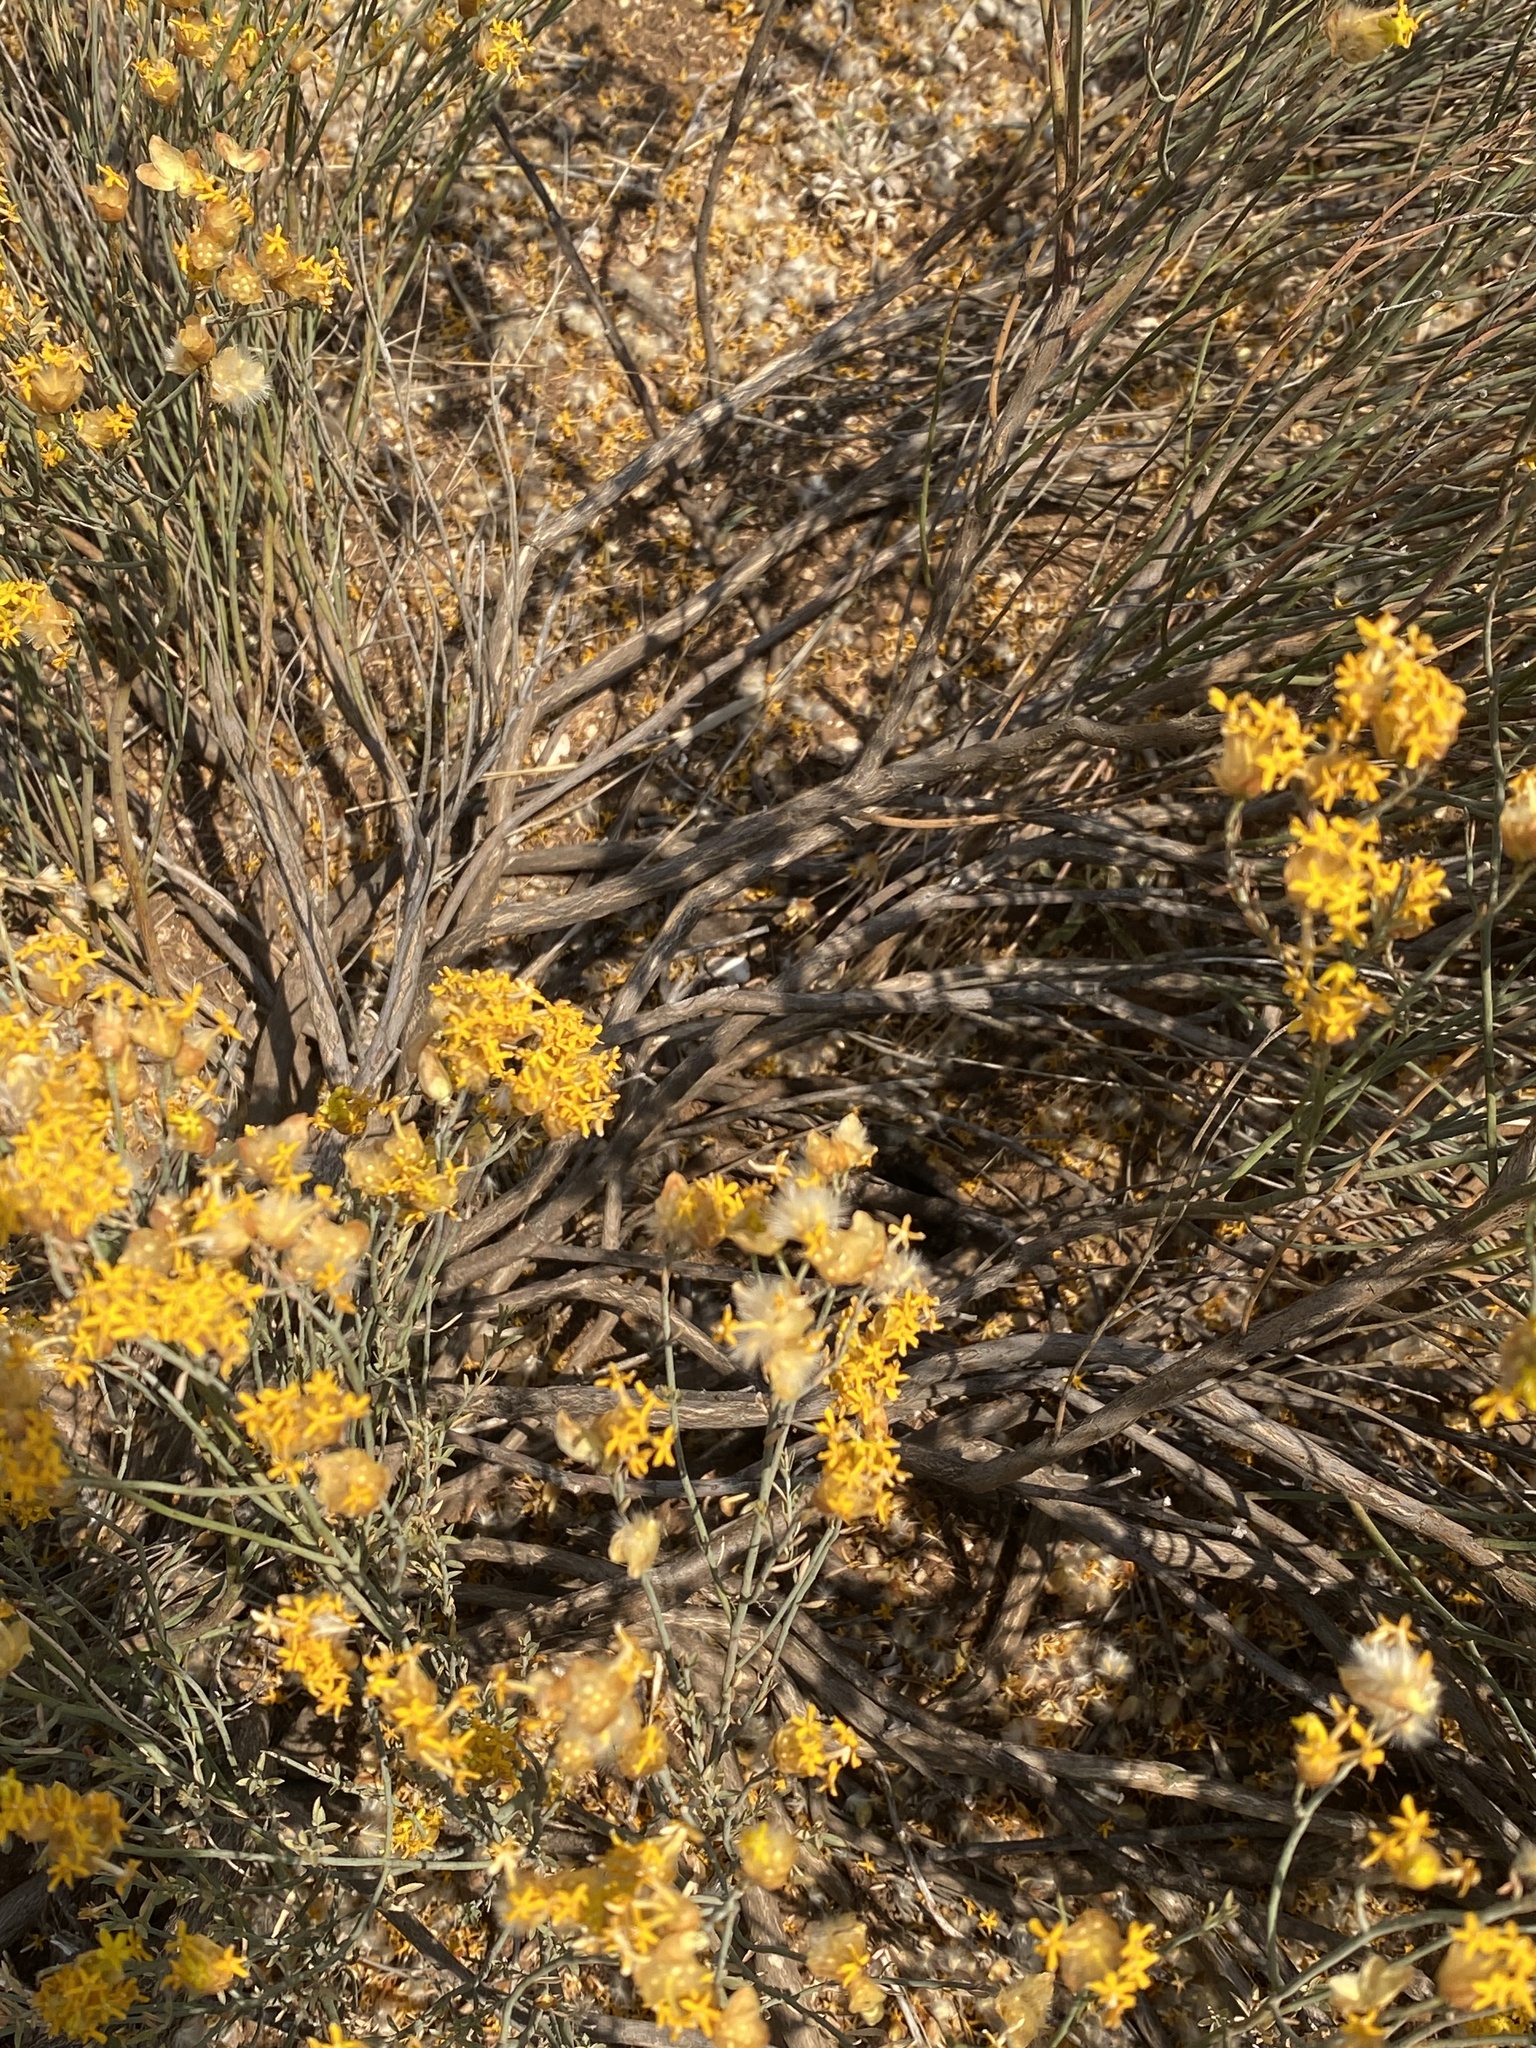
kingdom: Plantae
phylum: Tracheophyta
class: Magnoliopsida
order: Malvales
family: Thymelaeaceae
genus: Gnidia
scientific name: Gnidia polycephala
